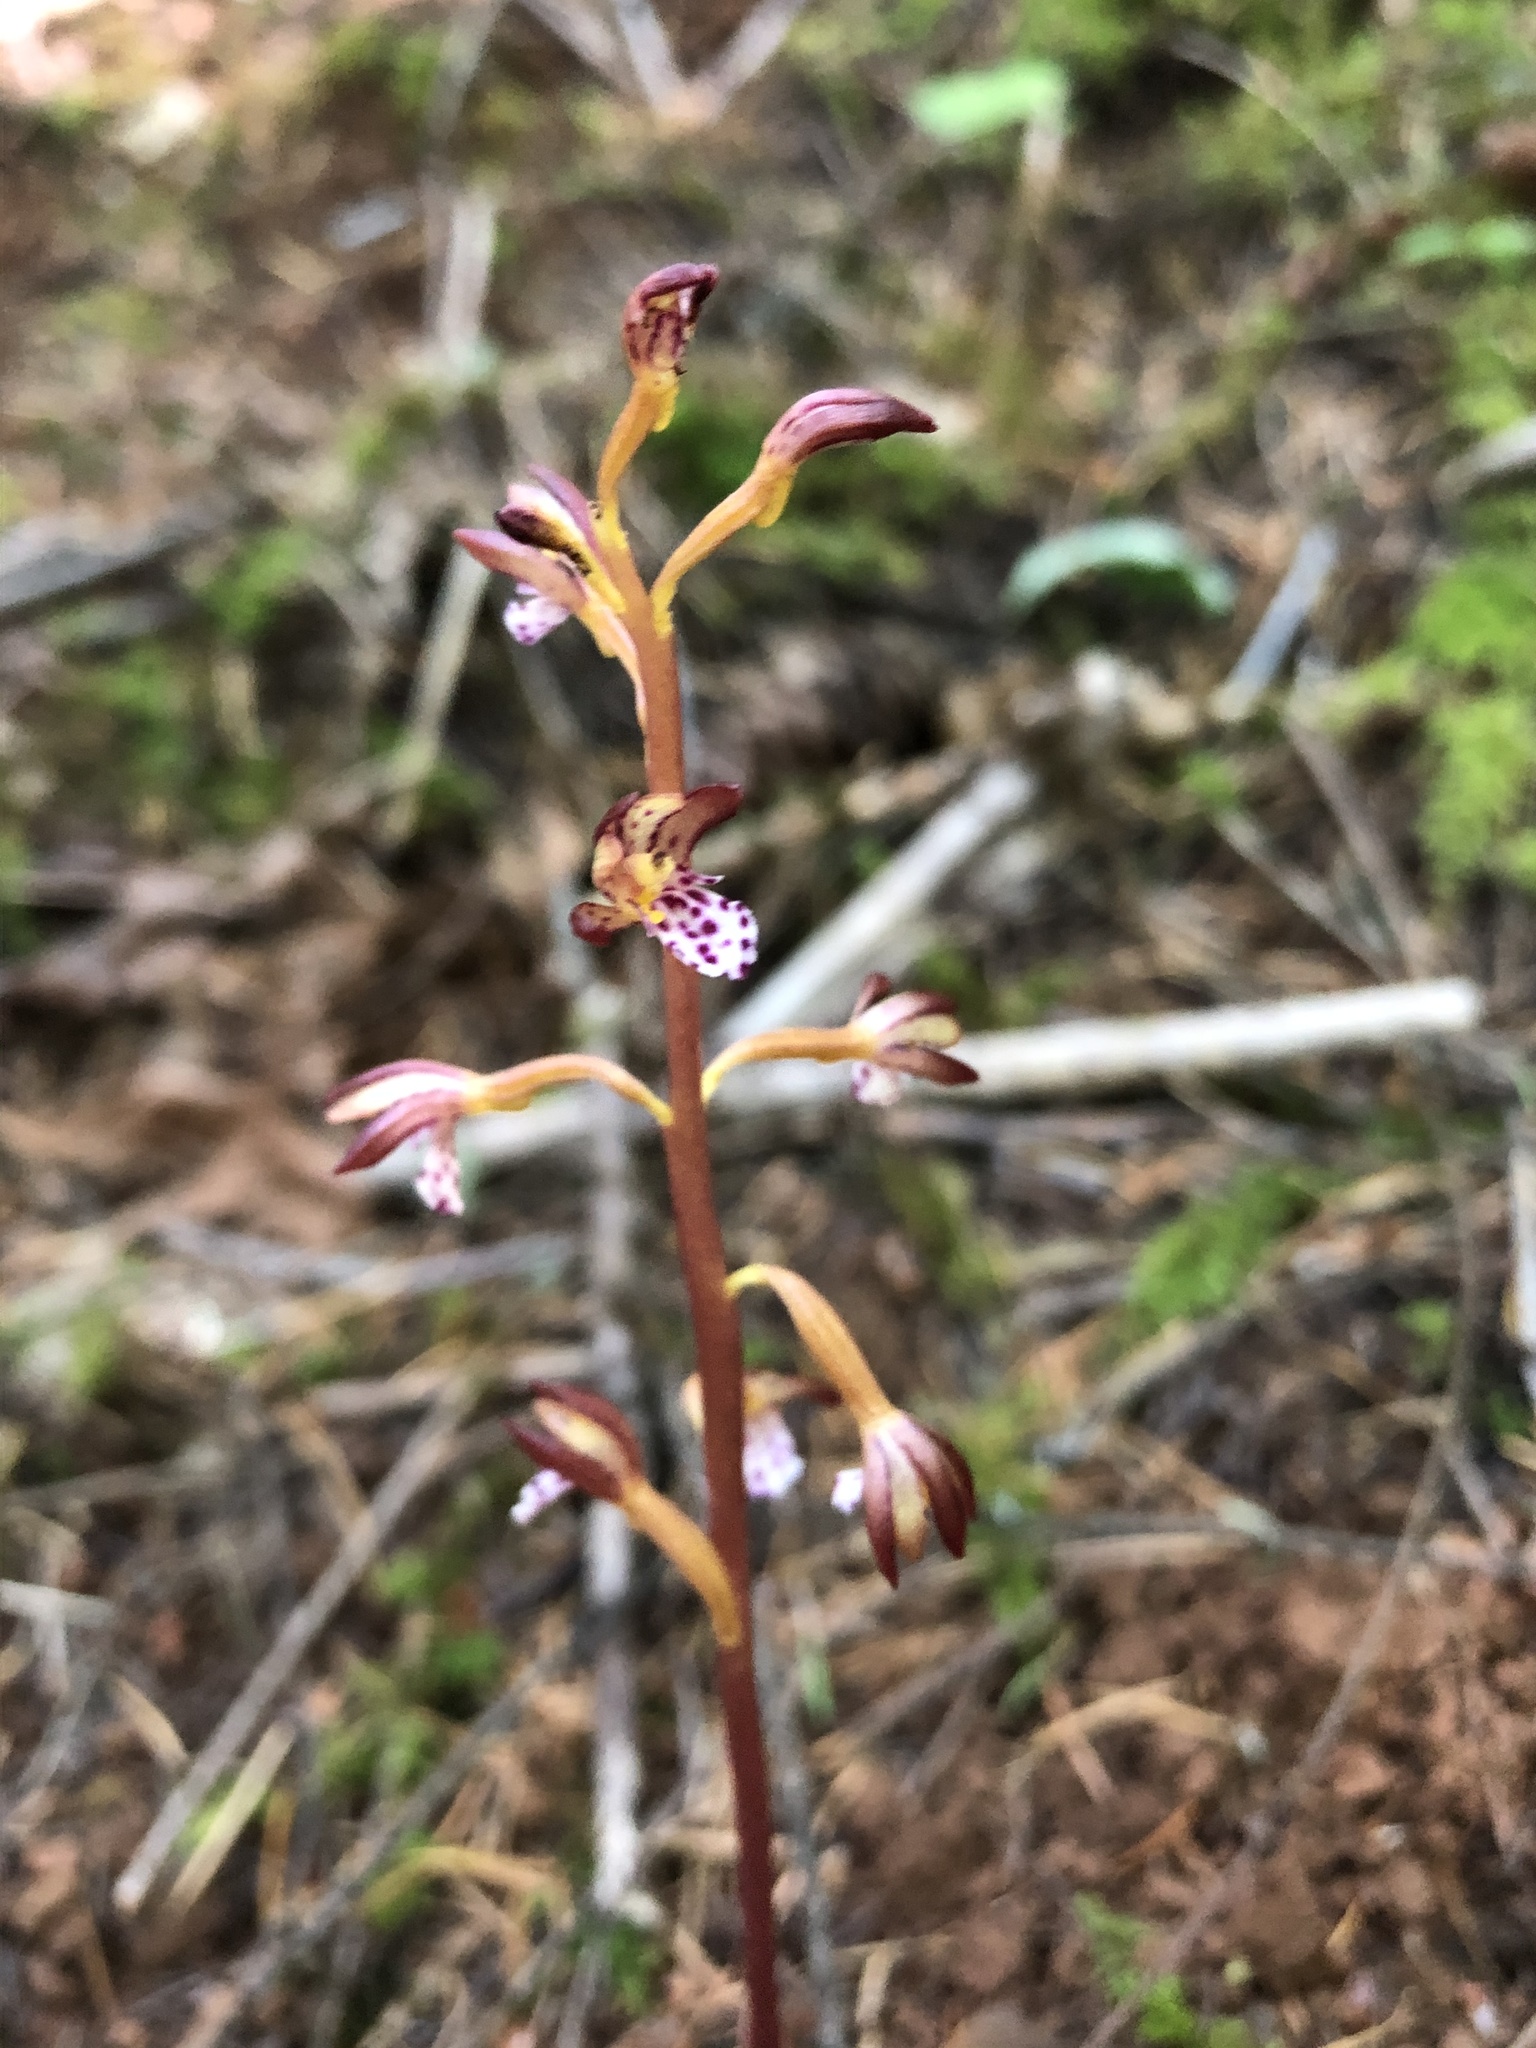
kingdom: Plantae
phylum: Tracheophyta
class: Liliopsida
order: Asparagales
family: Orchidaceae
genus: Corallorhiza
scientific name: Corallorhiza maculata
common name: Spotted coralroot
